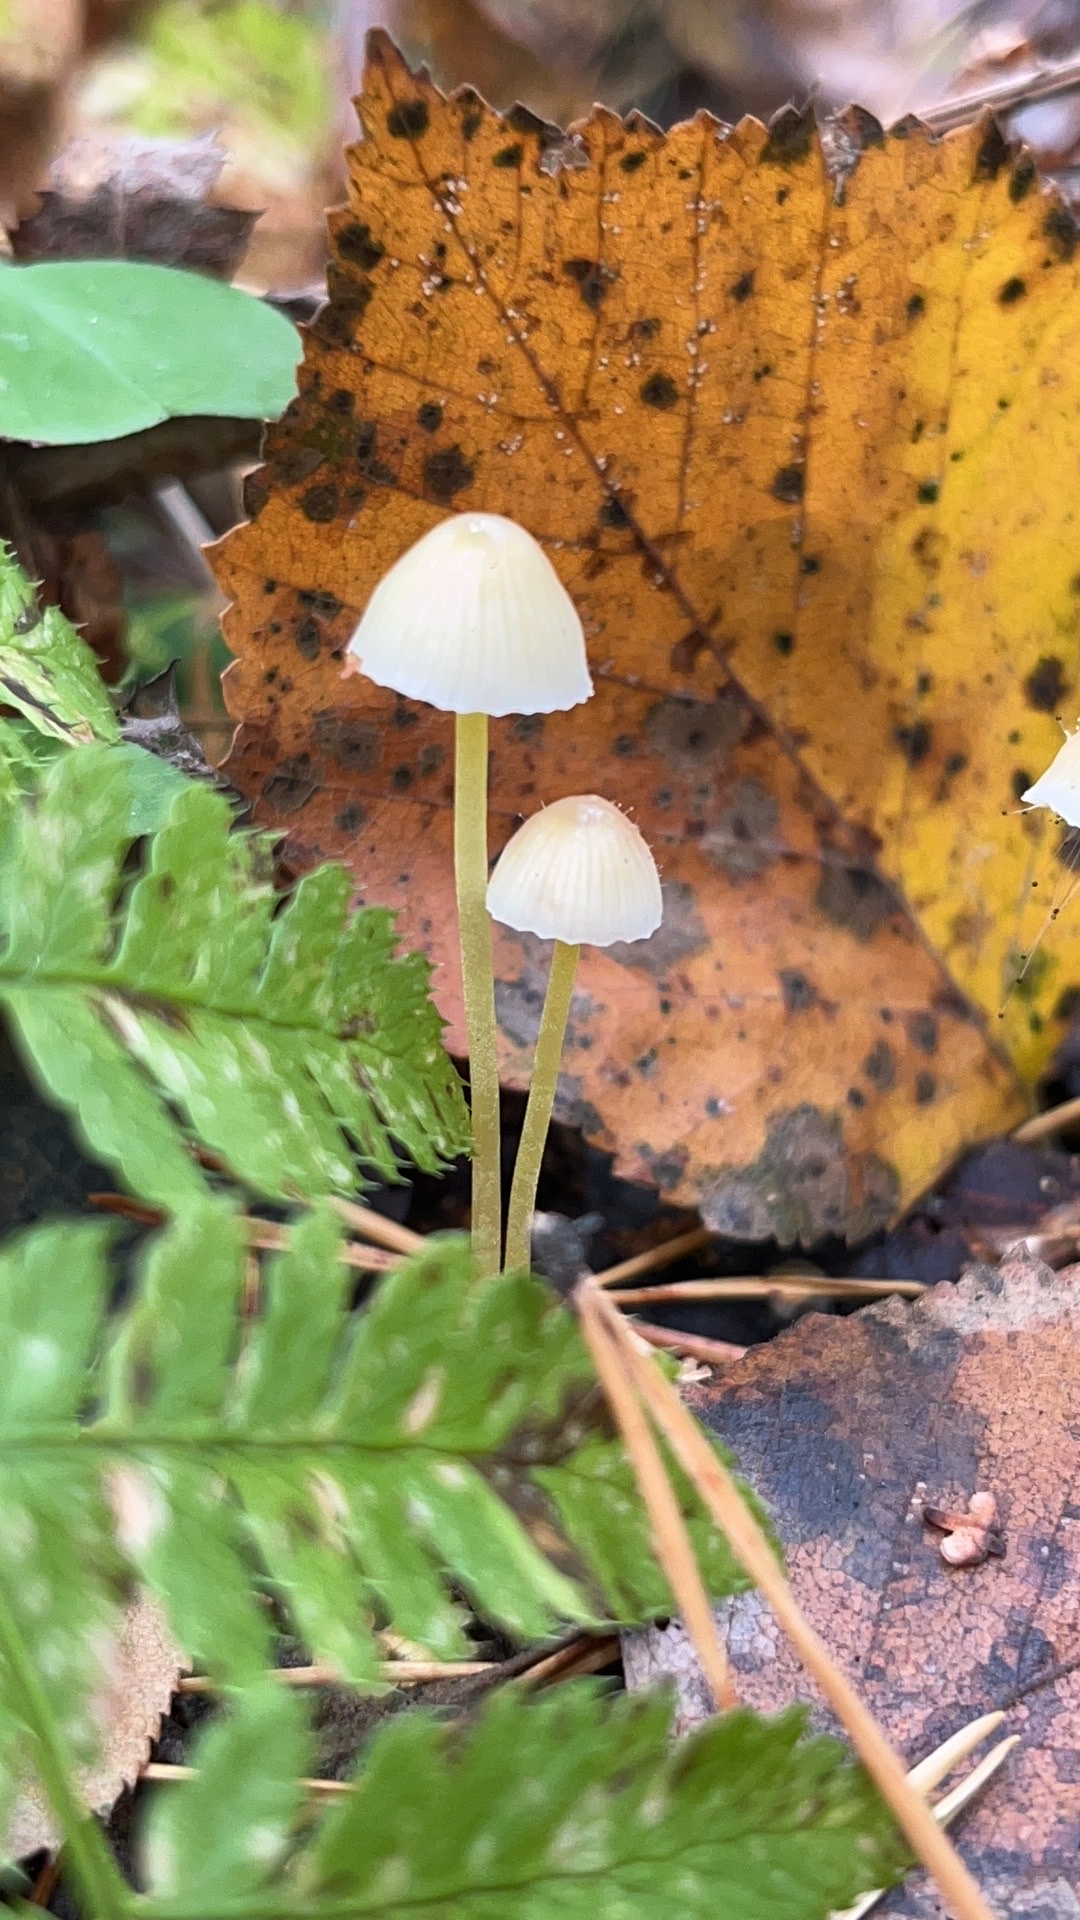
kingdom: Fungi
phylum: Basidiomycota
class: Agaricomycetes
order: Agaricales
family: Mycenaceae
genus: Mycena
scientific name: Mycena epipterygia
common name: Yellowleg bonnet
